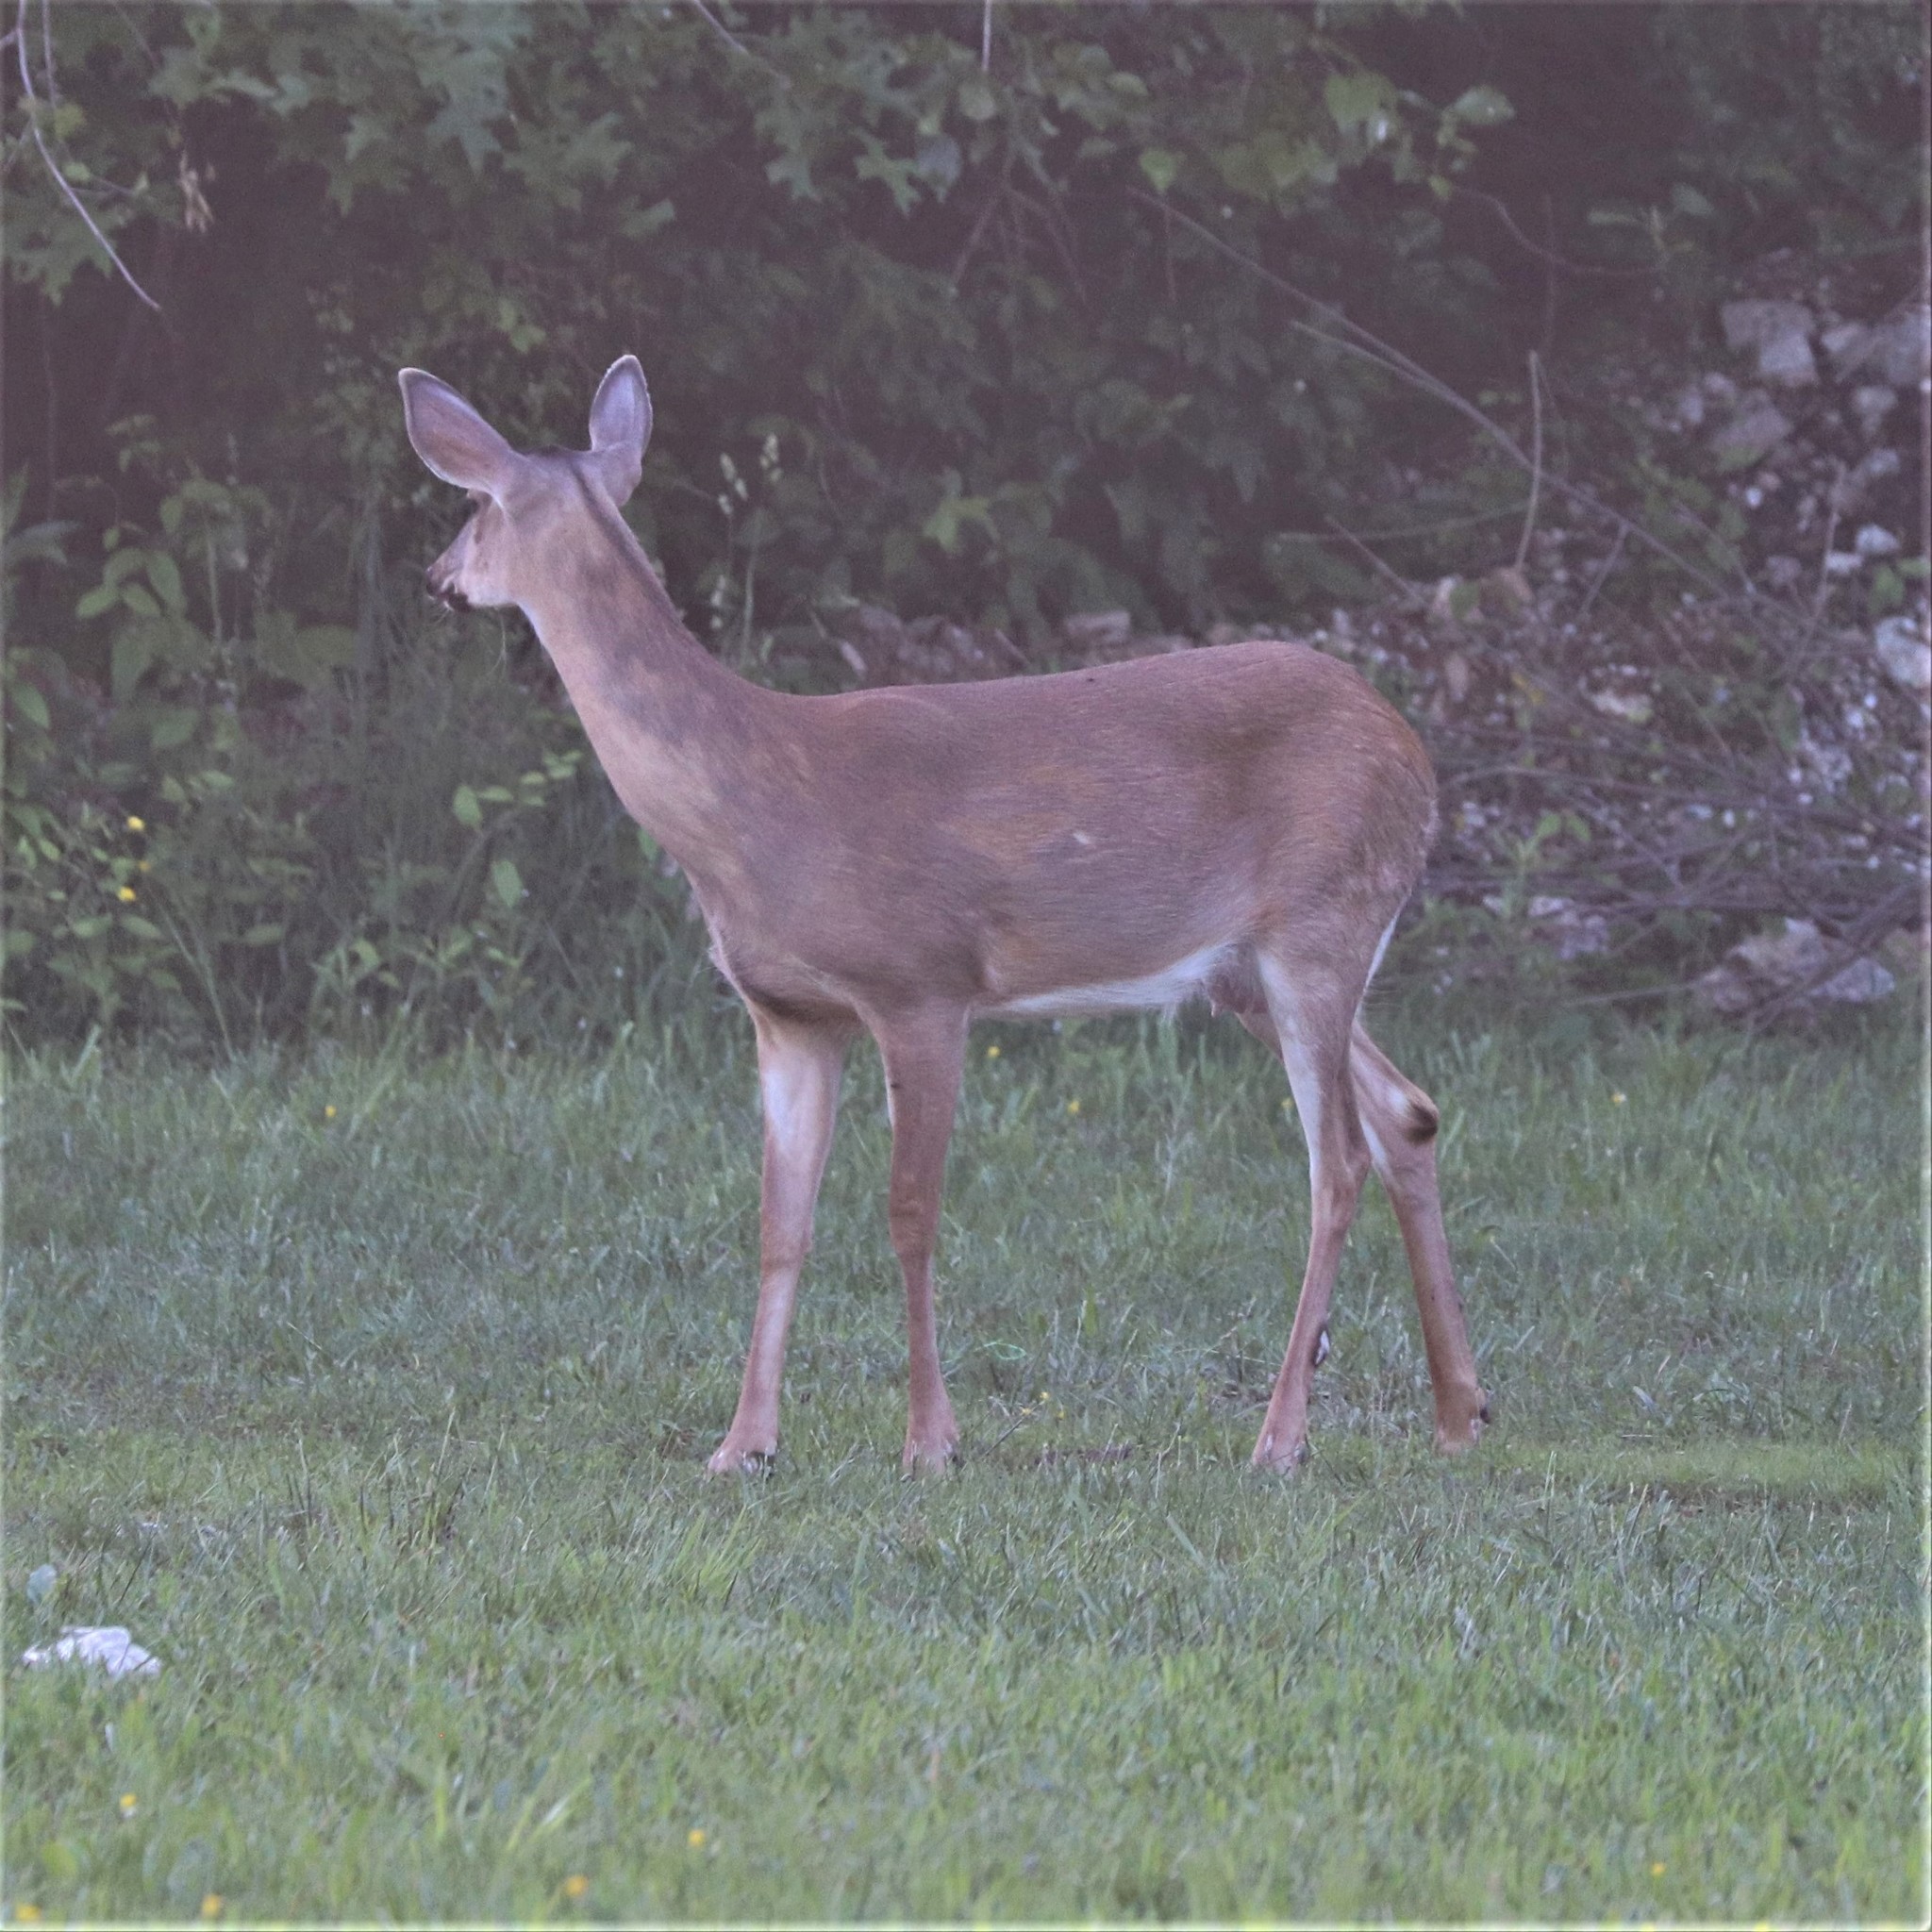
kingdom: Animalia
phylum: Chordata
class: Mammalia
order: Artiodactyla
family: Cervidae
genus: Odocoileus
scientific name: Odocoileus virginianus
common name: White-tailed deer
